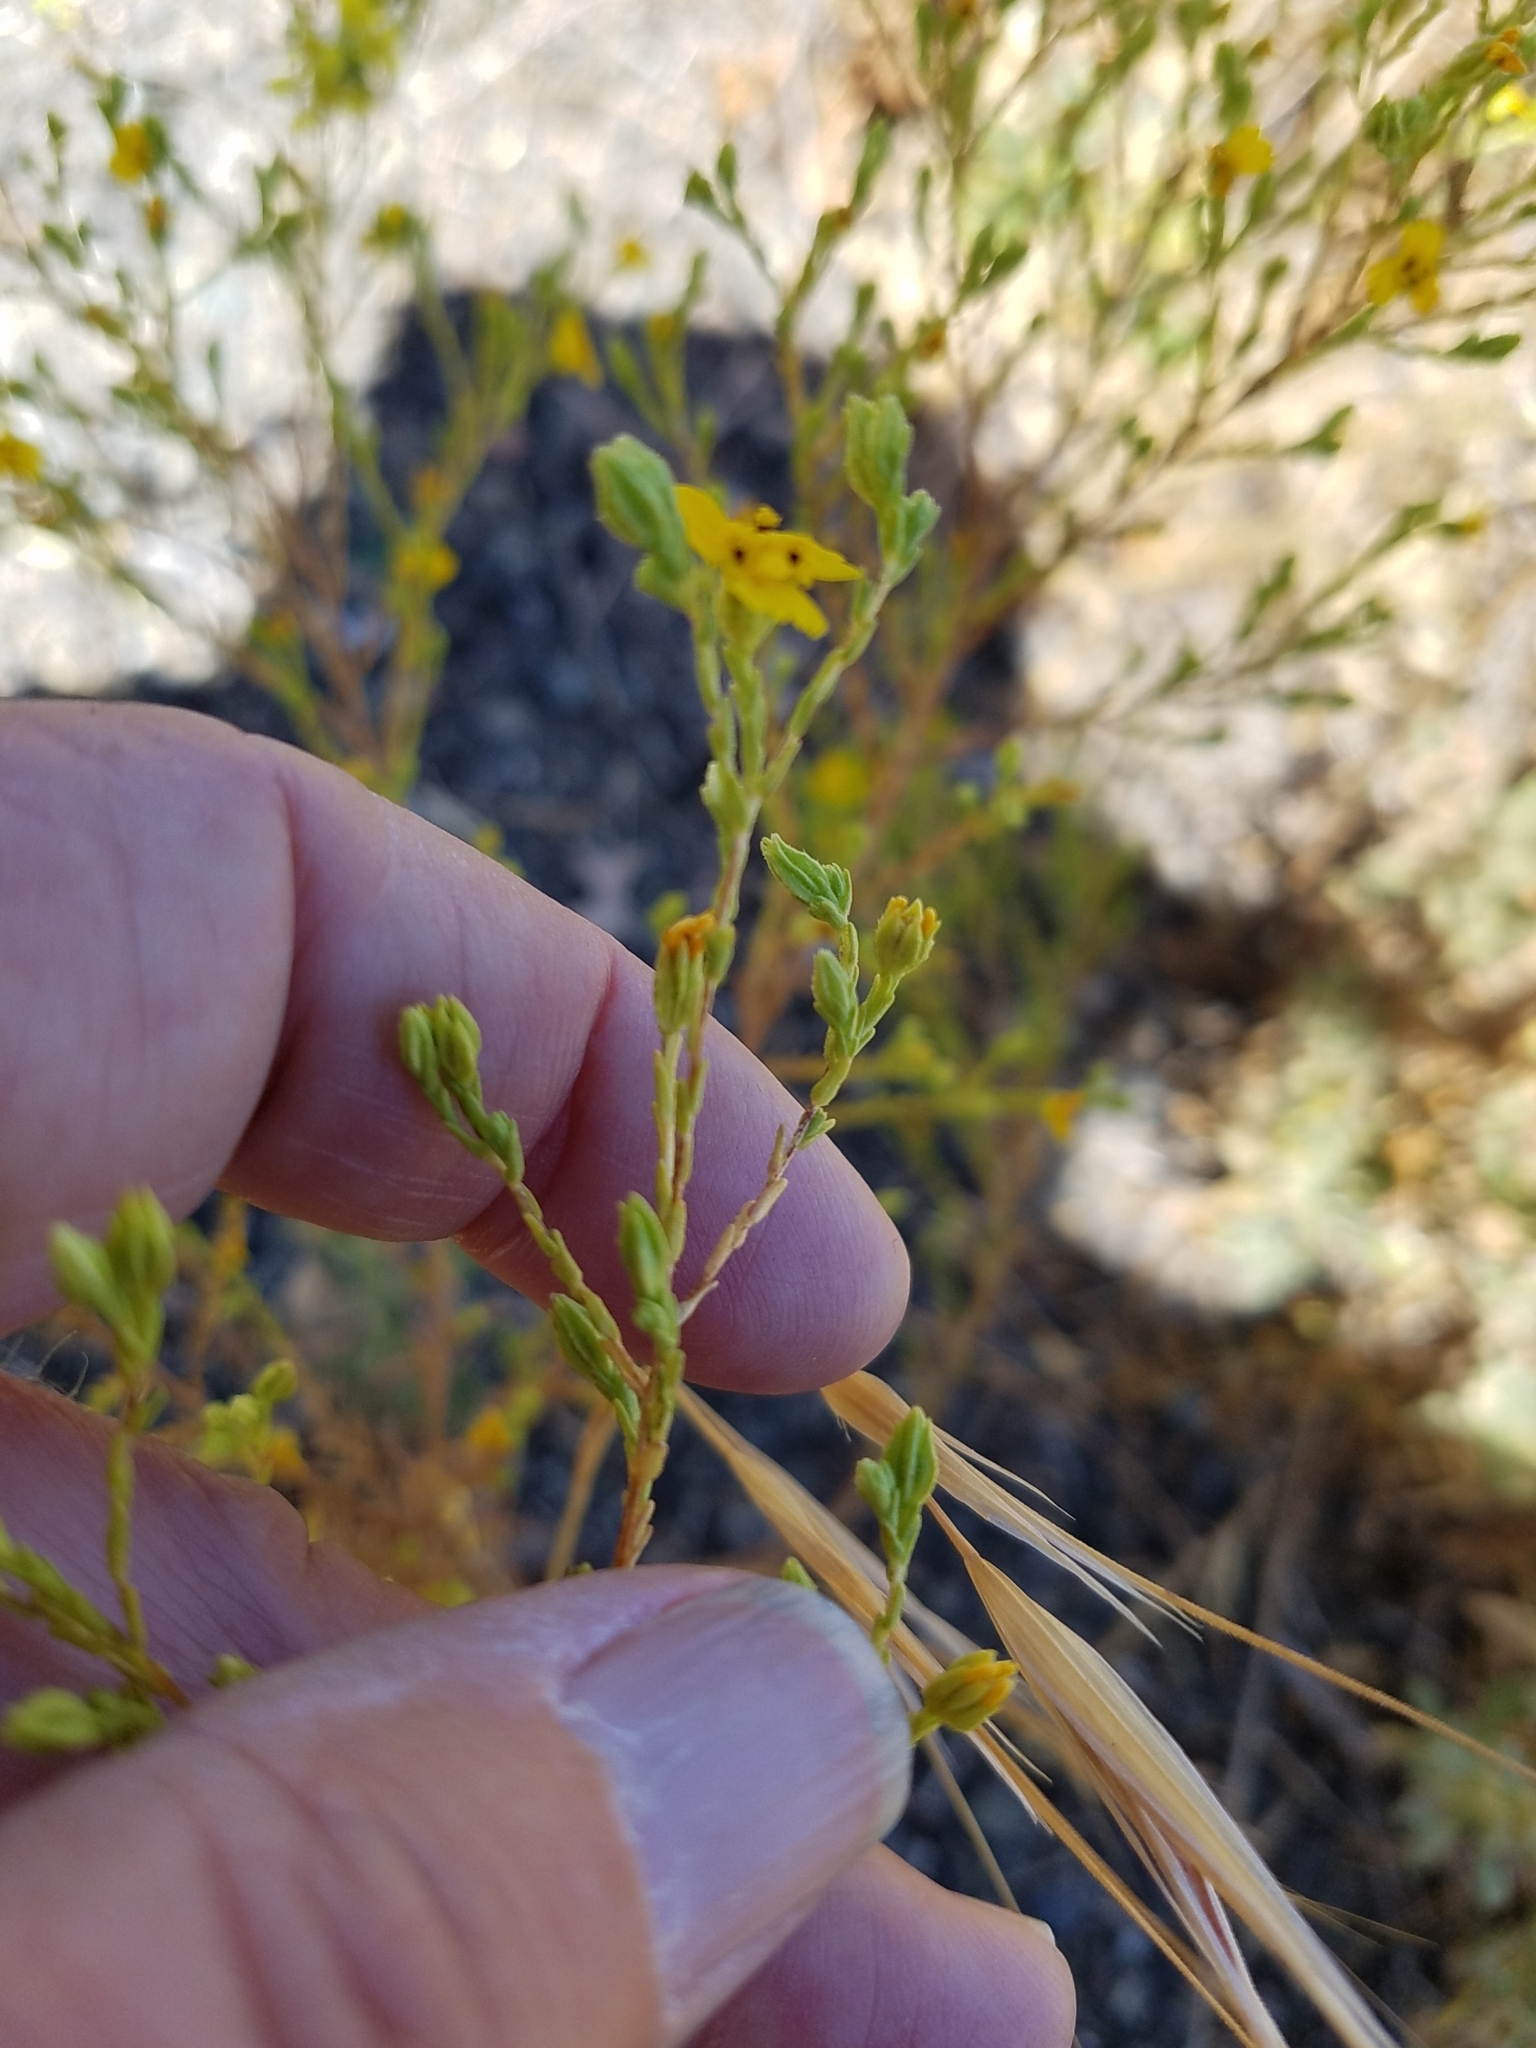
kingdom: Plantae
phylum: Tracheophyta
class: Magnoliopsida
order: Asterales
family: Asteraceae
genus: Deinandra
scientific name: Deinandra lobbii
